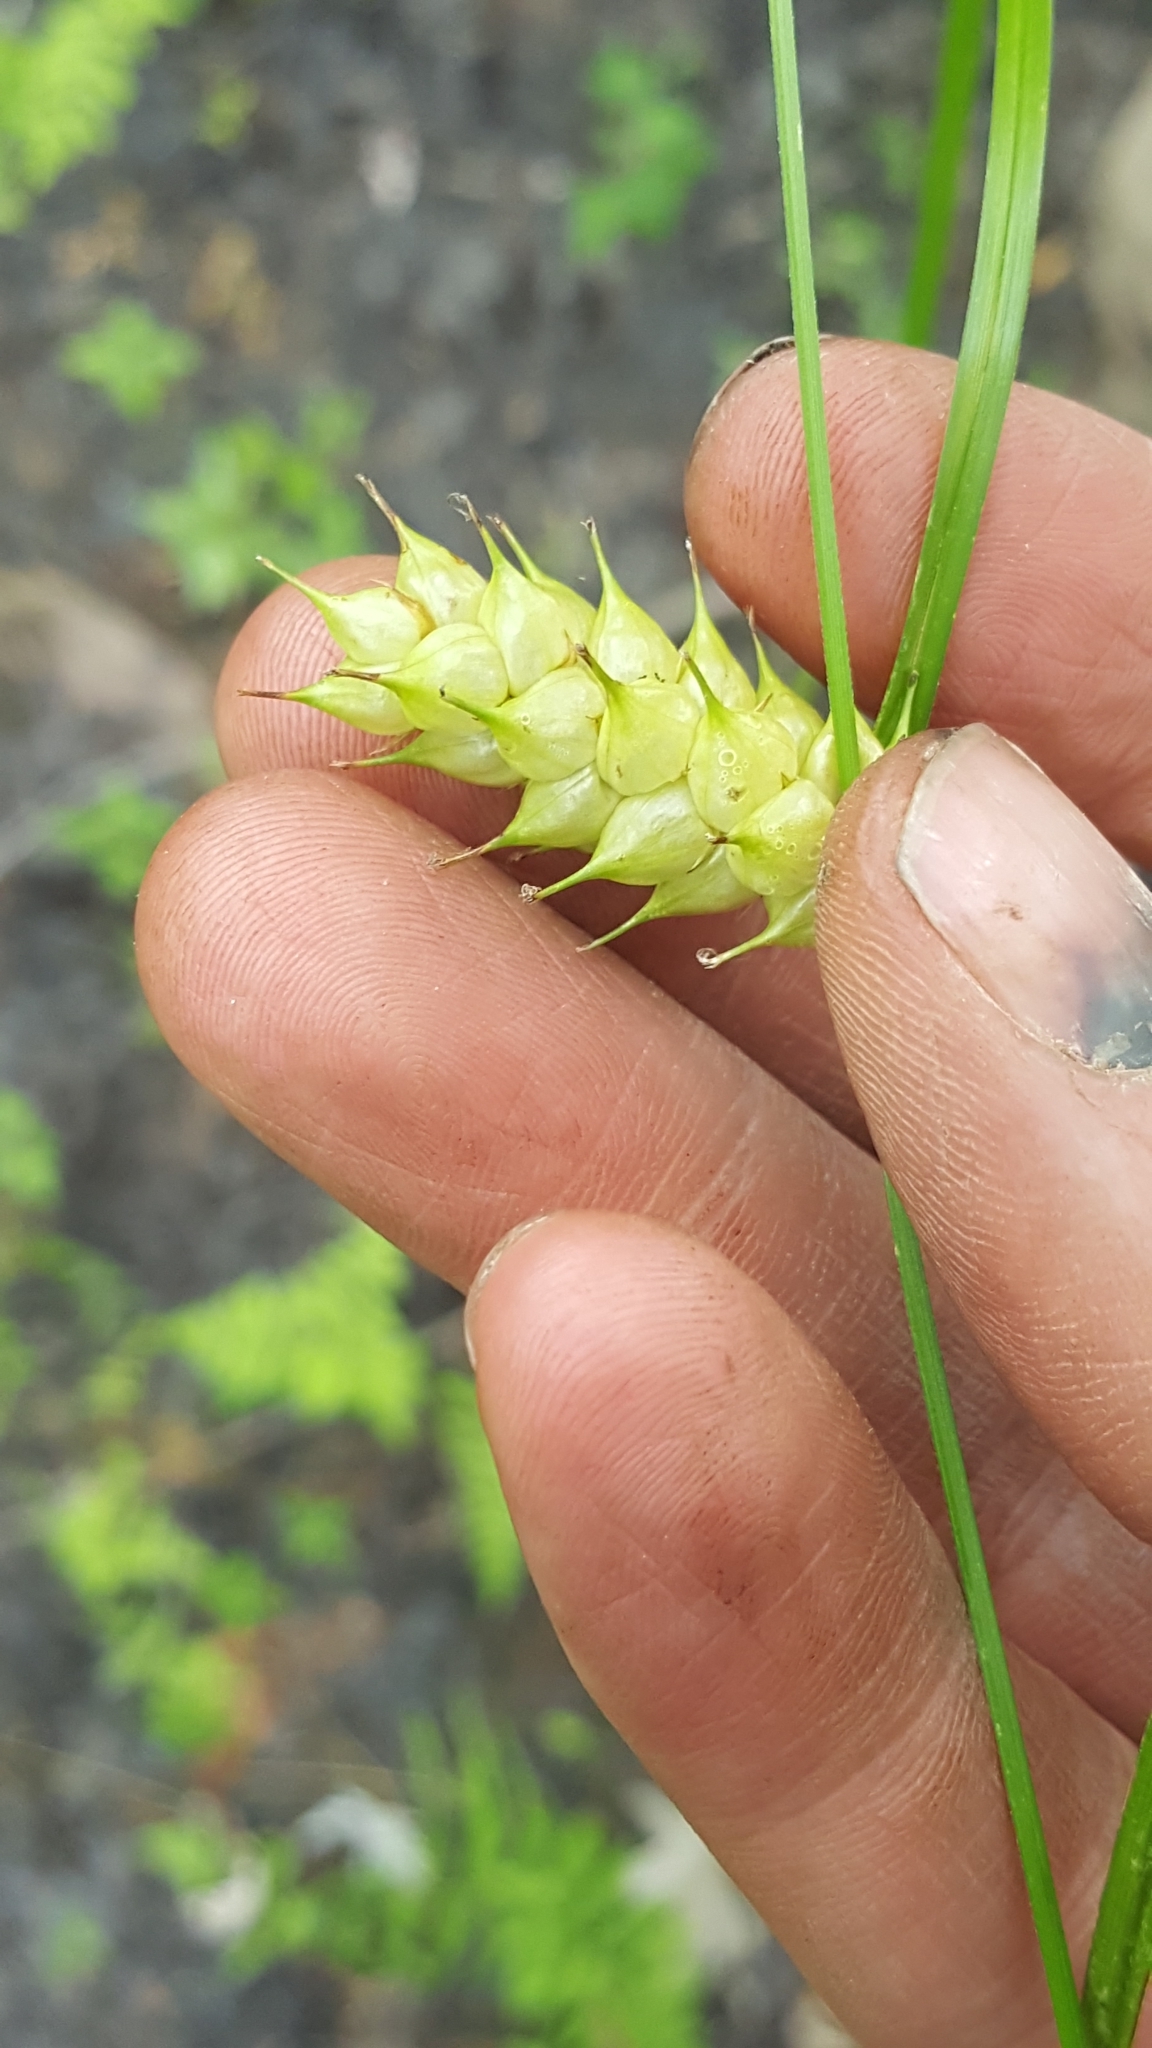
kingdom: Plantae
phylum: Tracheophyta
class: Liliopsida
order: Poales
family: Cyperaceae
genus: Carex
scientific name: Carex tuckermanii
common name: Tuckerman's sedge
